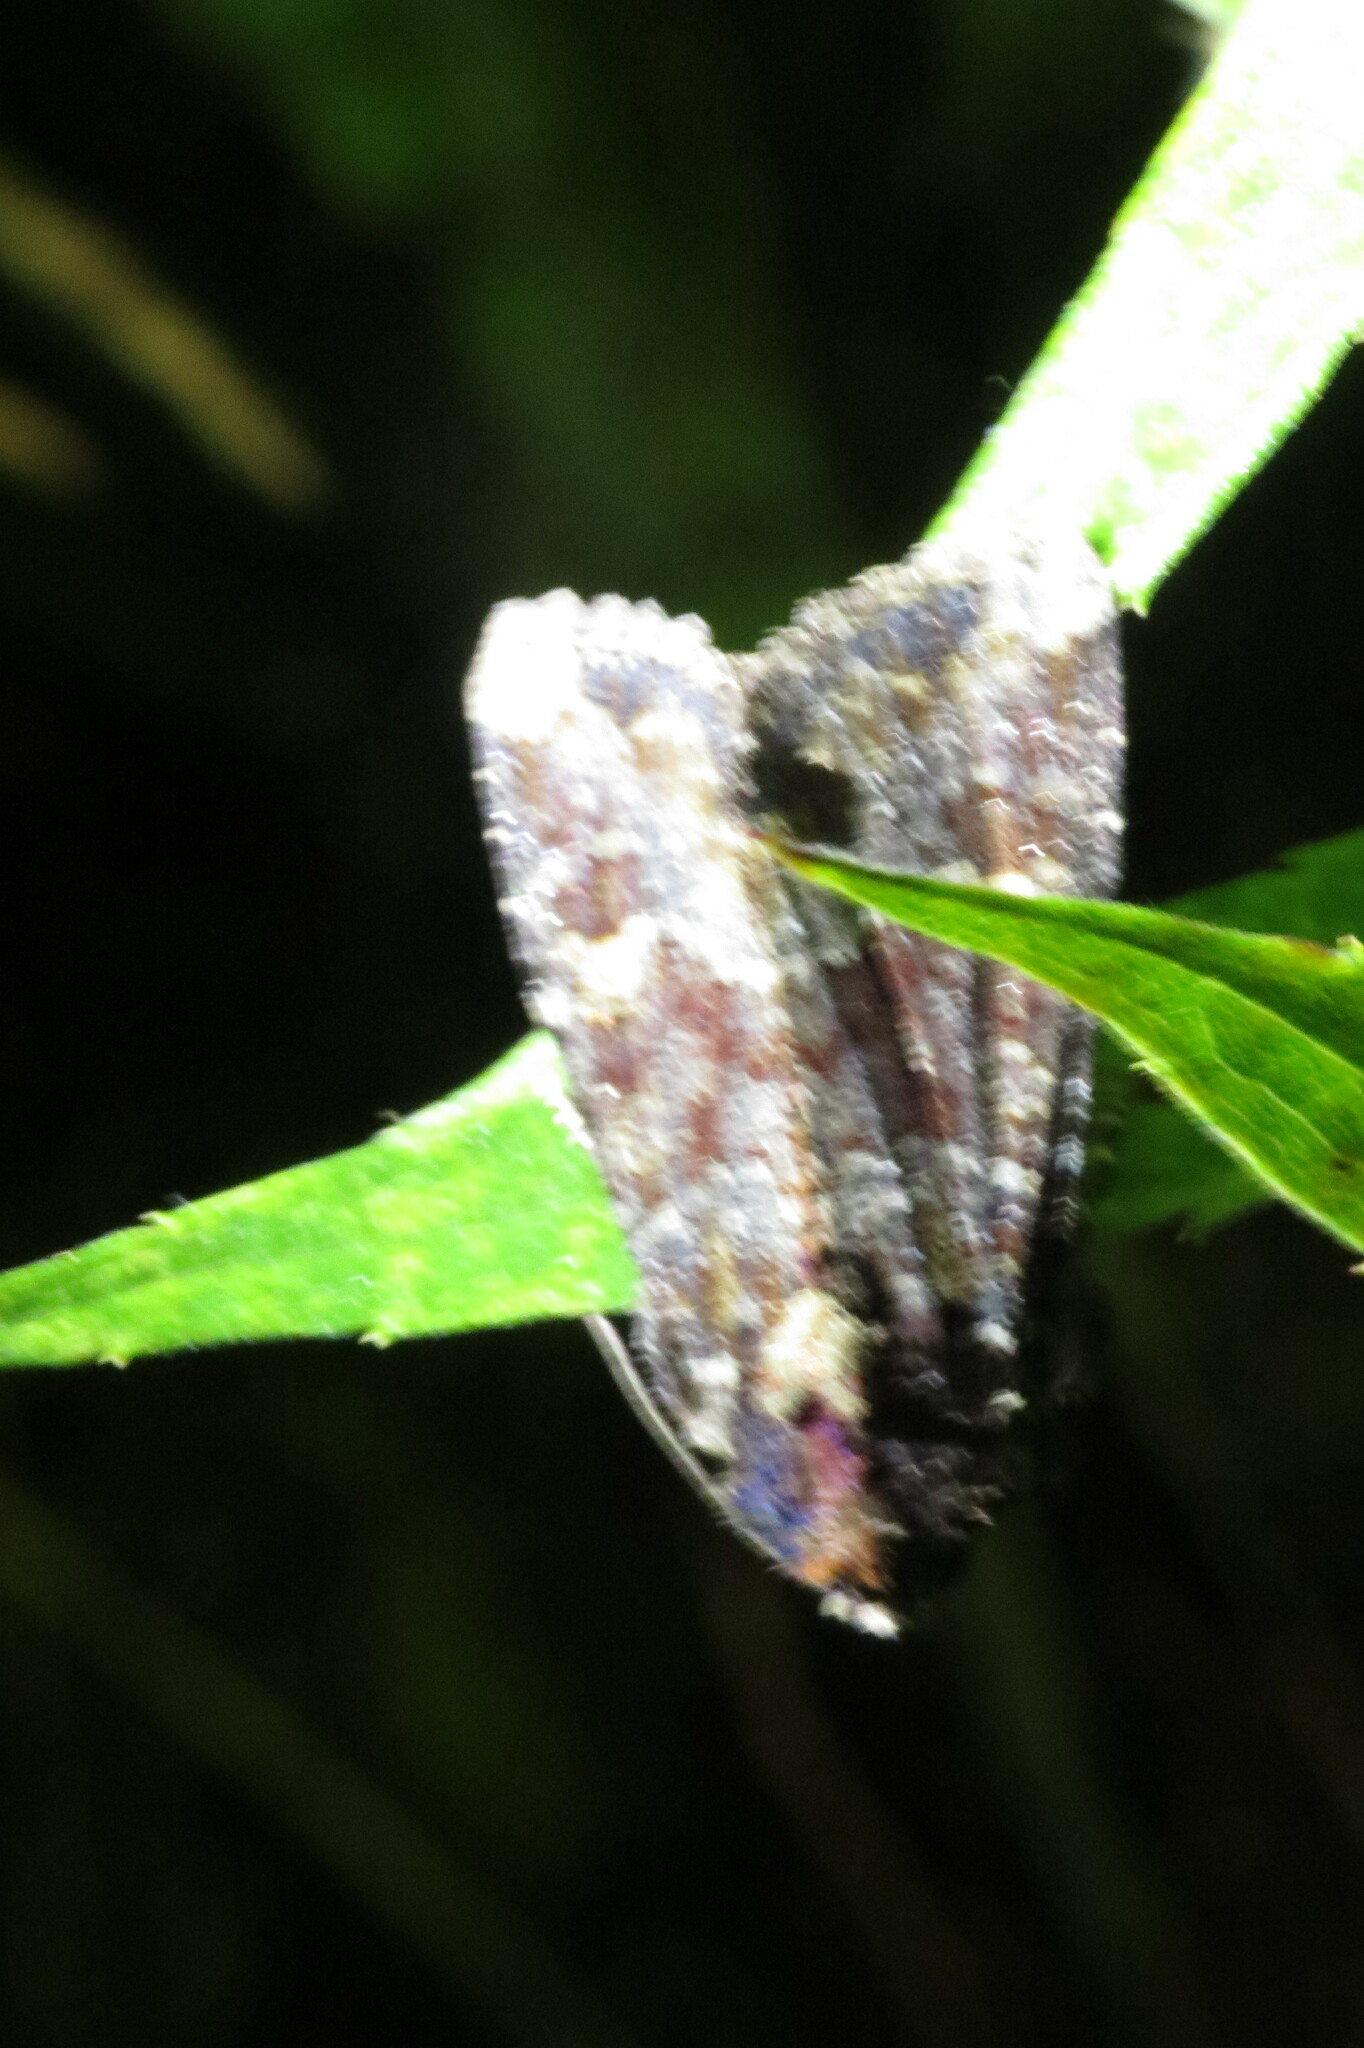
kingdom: Animalia
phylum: Arthropoda
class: Insecta
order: Lepidoptera
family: Noctuidae
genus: Apamea
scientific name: Apamea amputatrix
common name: Yellow-headed cutworm moth
